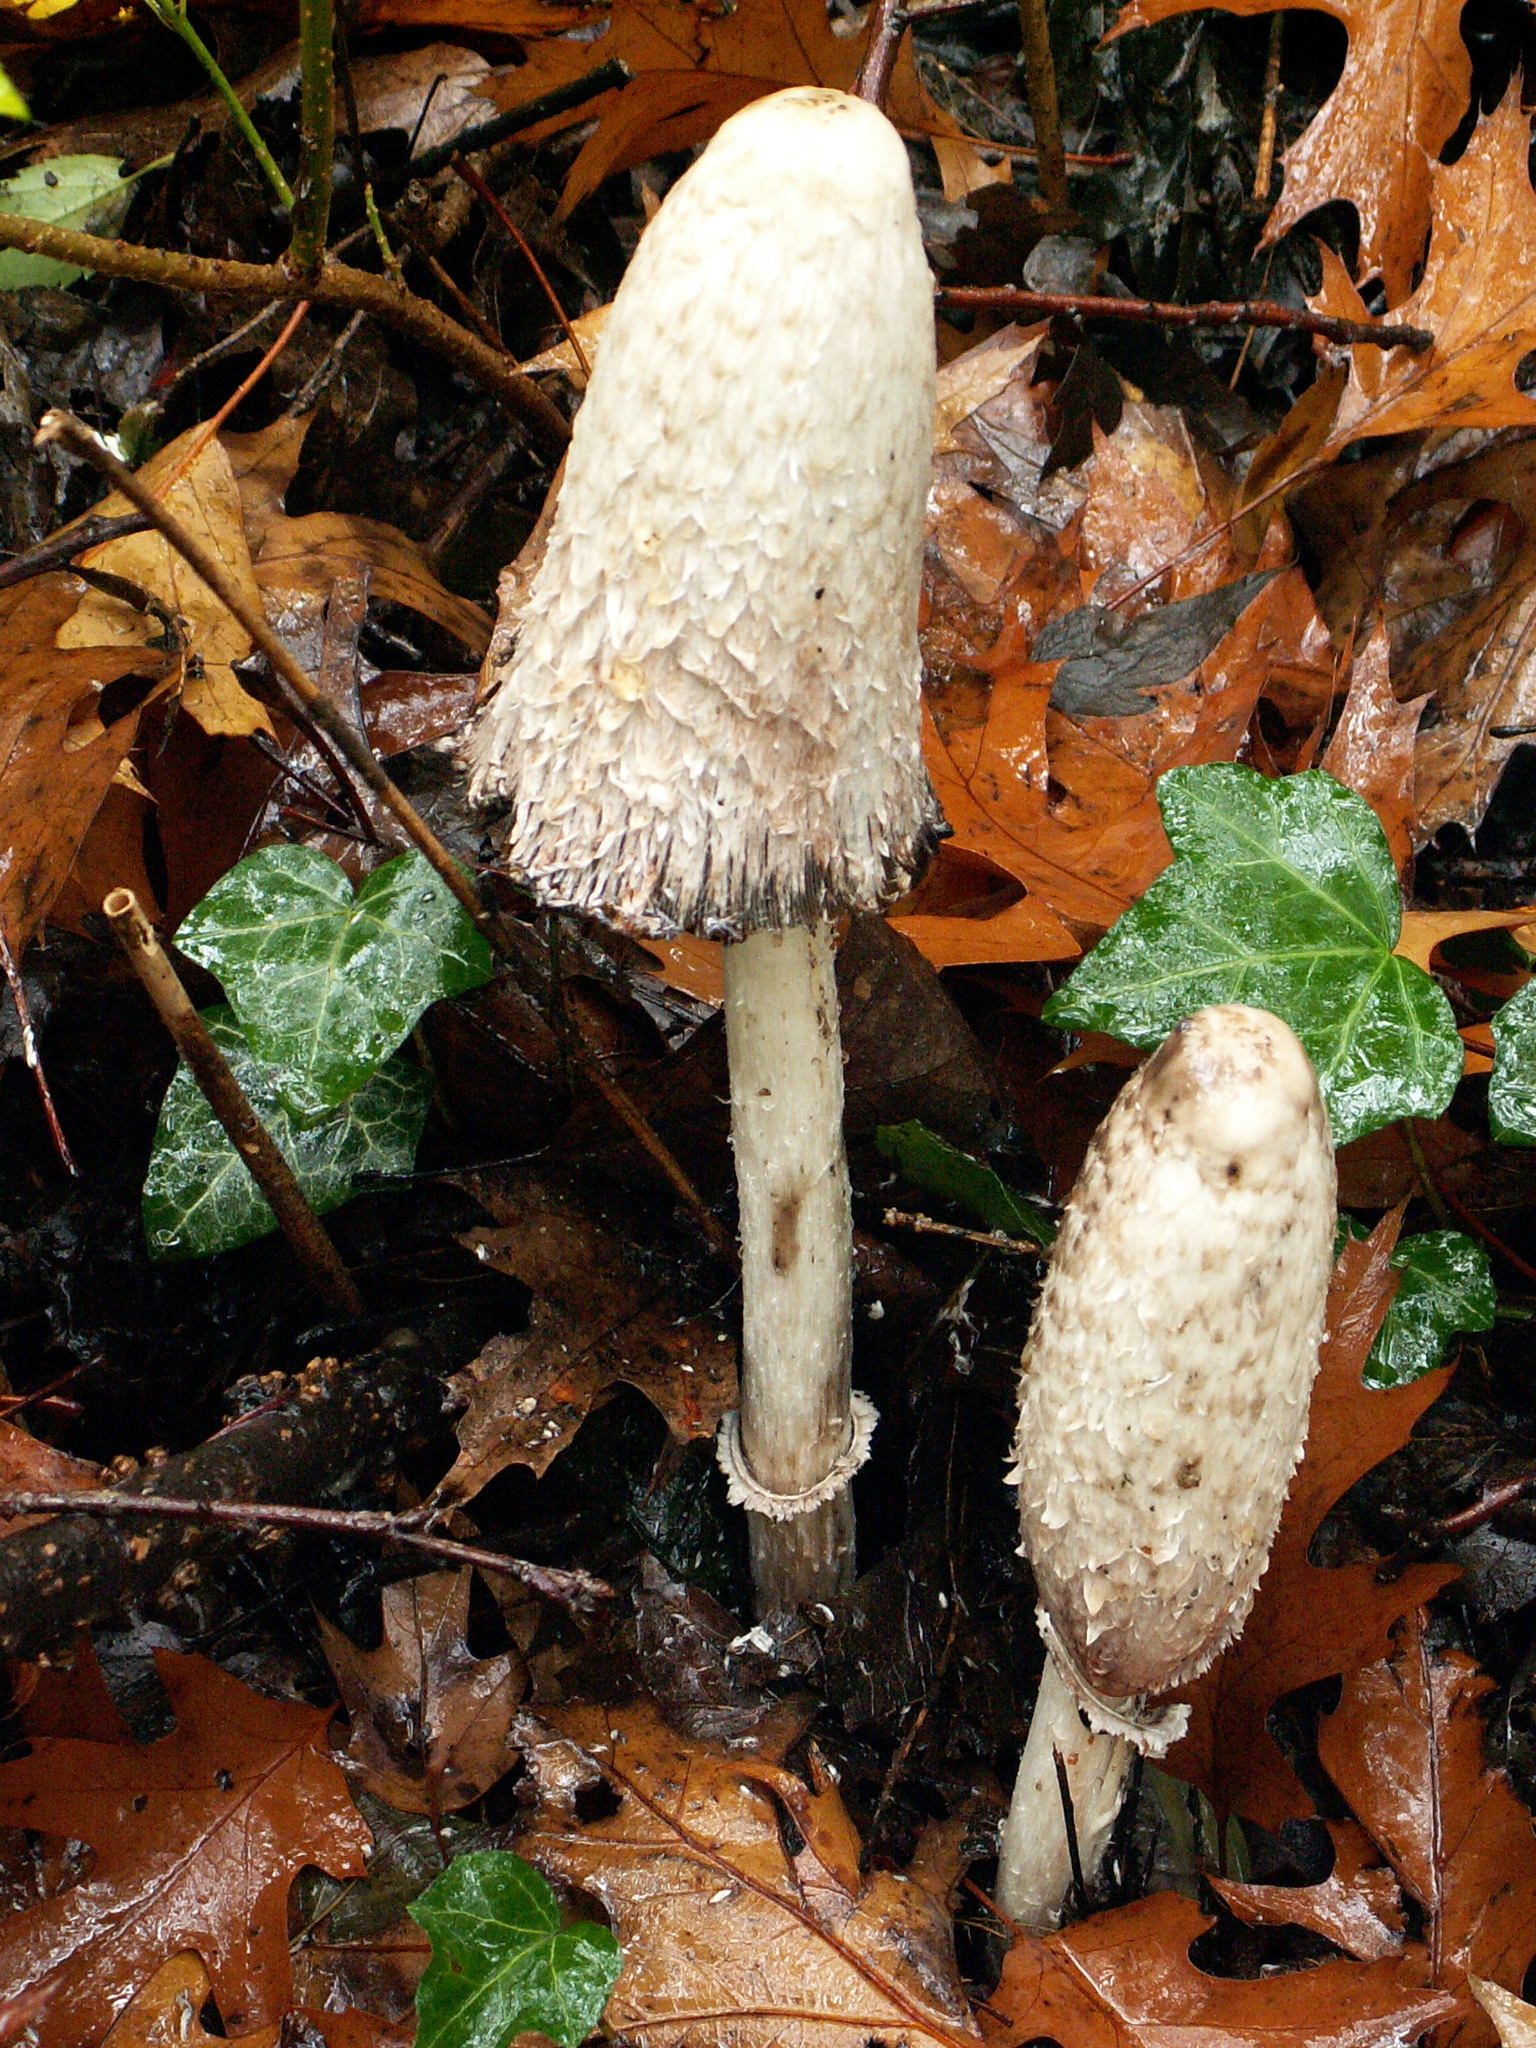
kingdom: Fungi
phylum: Basidiomycota
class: Agaricomycetes
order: Agaricales
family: Agaricaceae
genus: Coprinus
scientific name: Coprinus comatus
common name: Lawyer's wig
